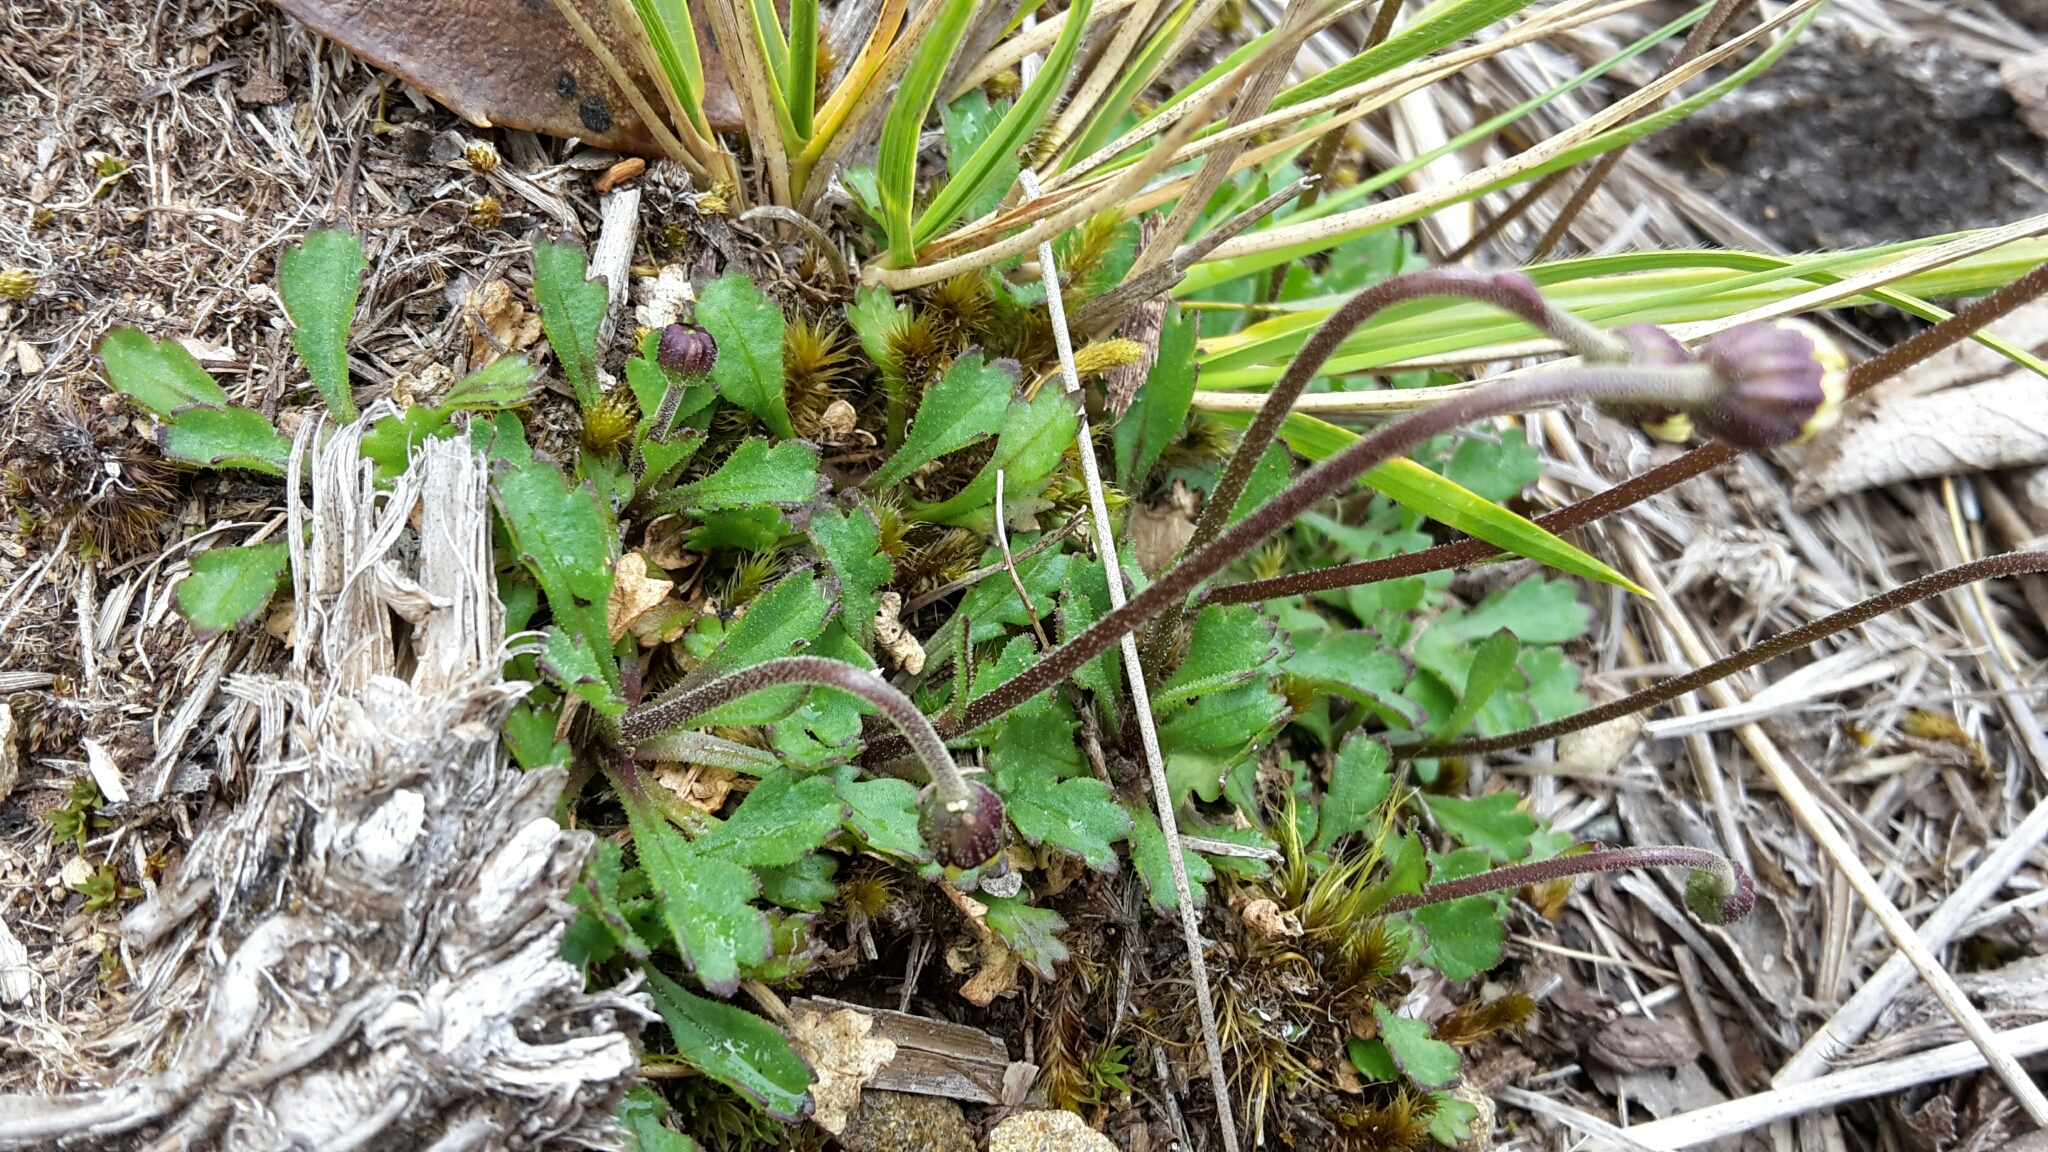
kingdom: Plantae
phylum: Tracheophyta
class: Magnoliopsida
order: Asterales
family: Asteraceae
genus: Brachyscome
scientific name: Brachyscome radicata
